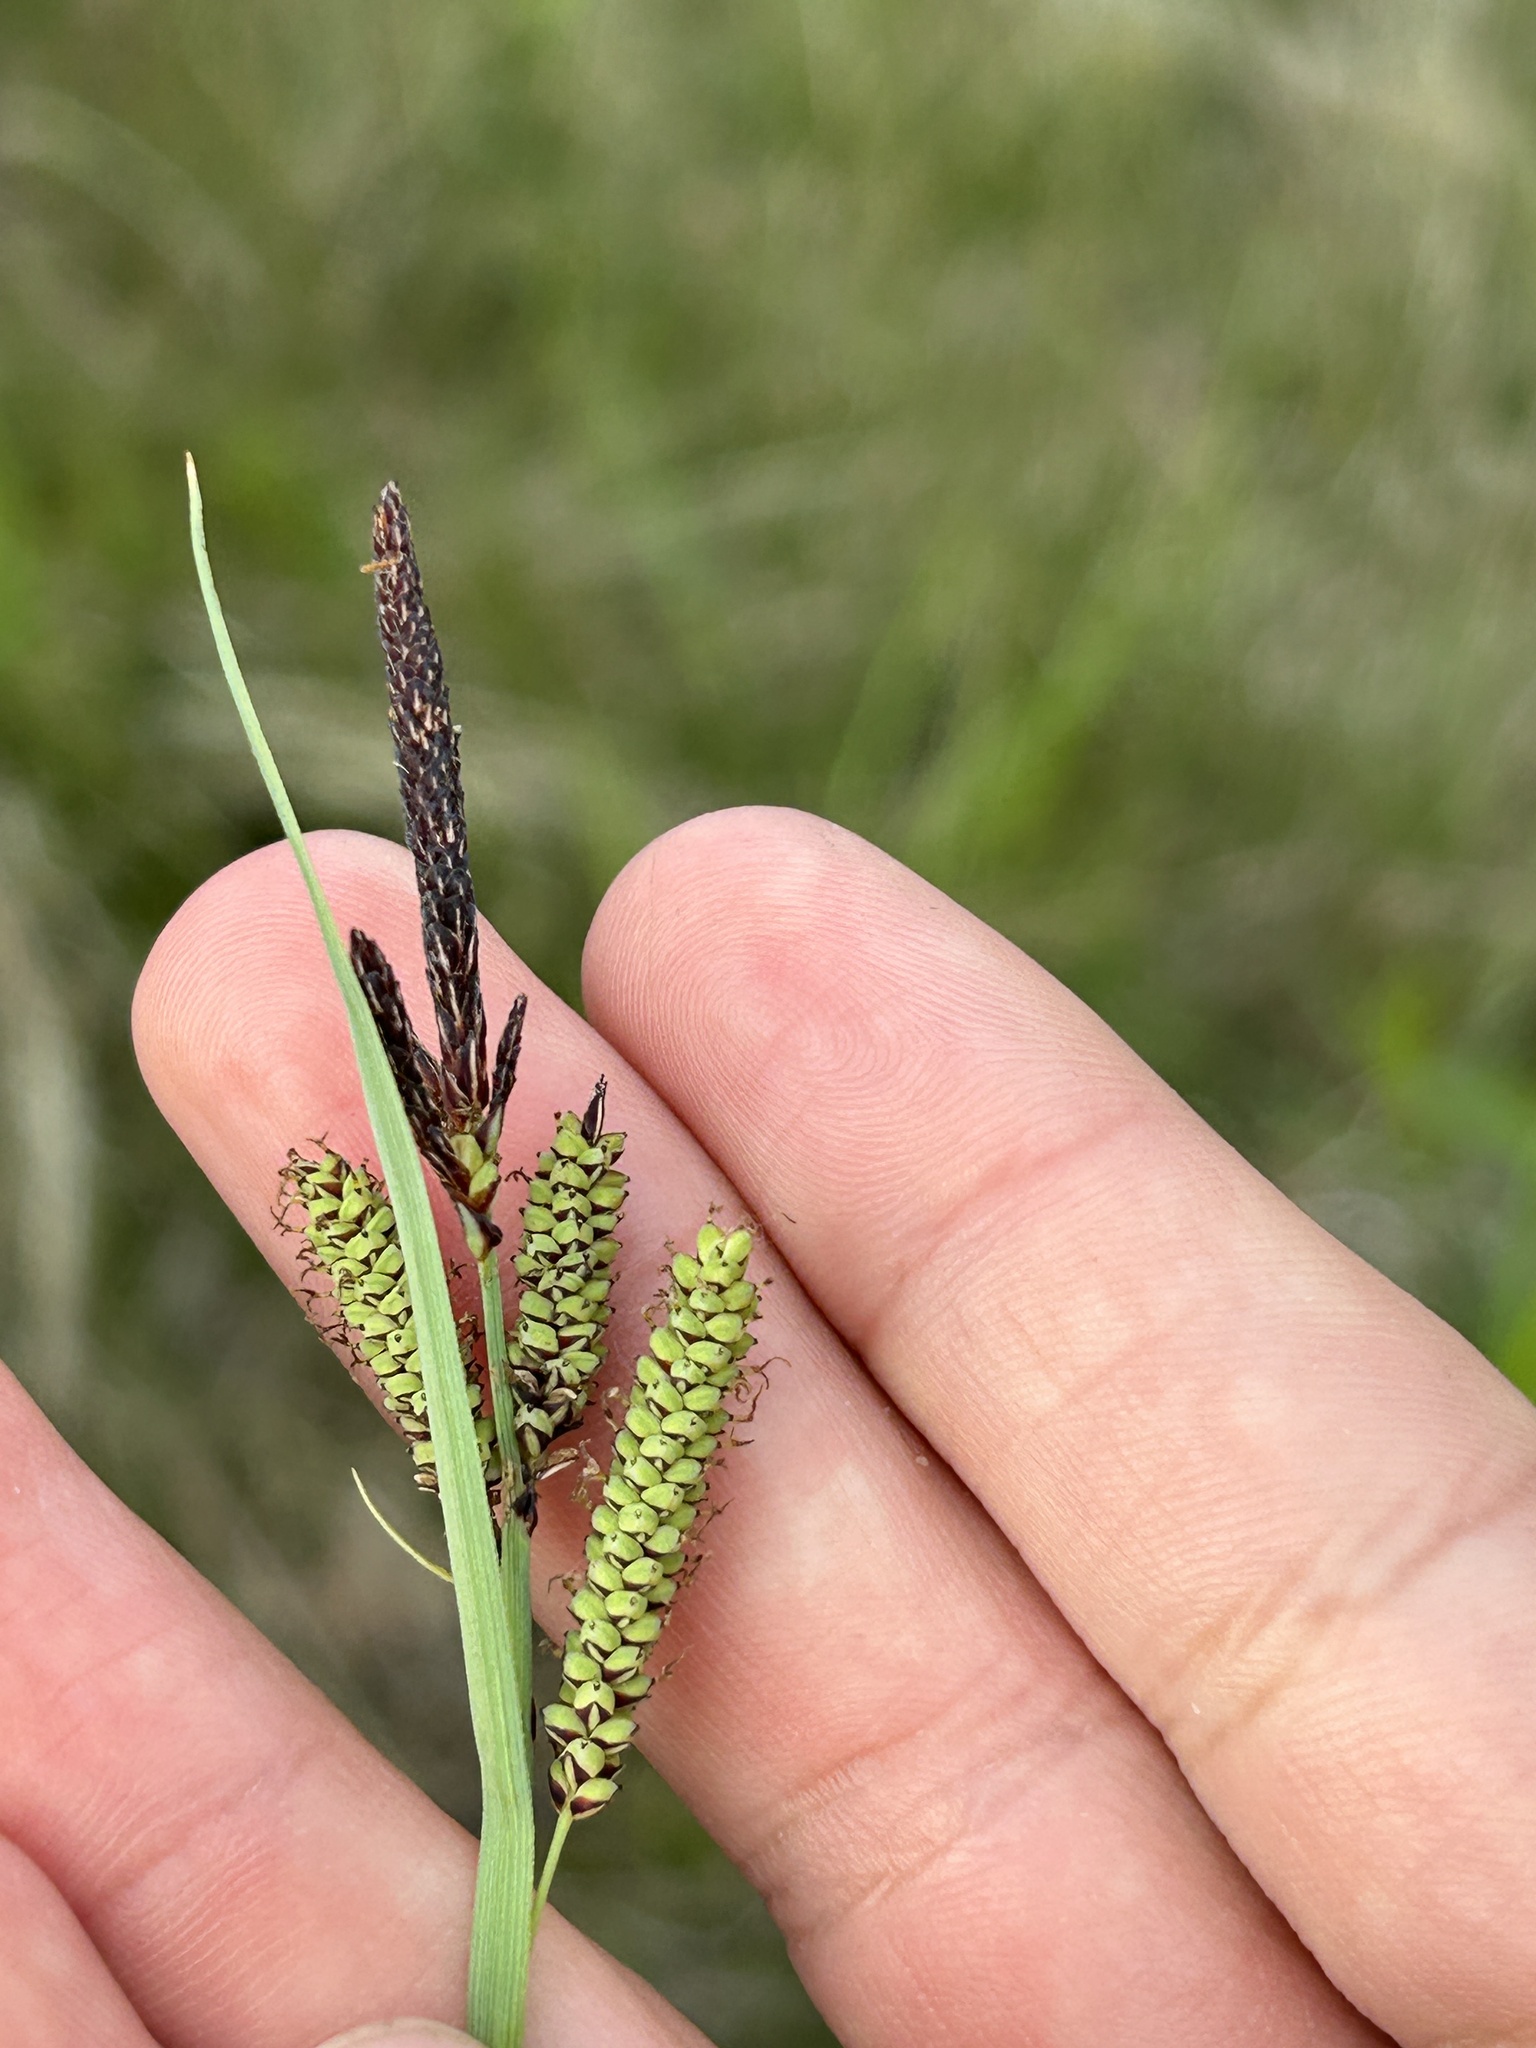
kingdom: Plantae
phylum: Tracheophyta
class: Liliopsida
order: Poales
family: Cyperaceae
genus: Carex
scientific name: Carex flacca
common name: Glaucous sedge
